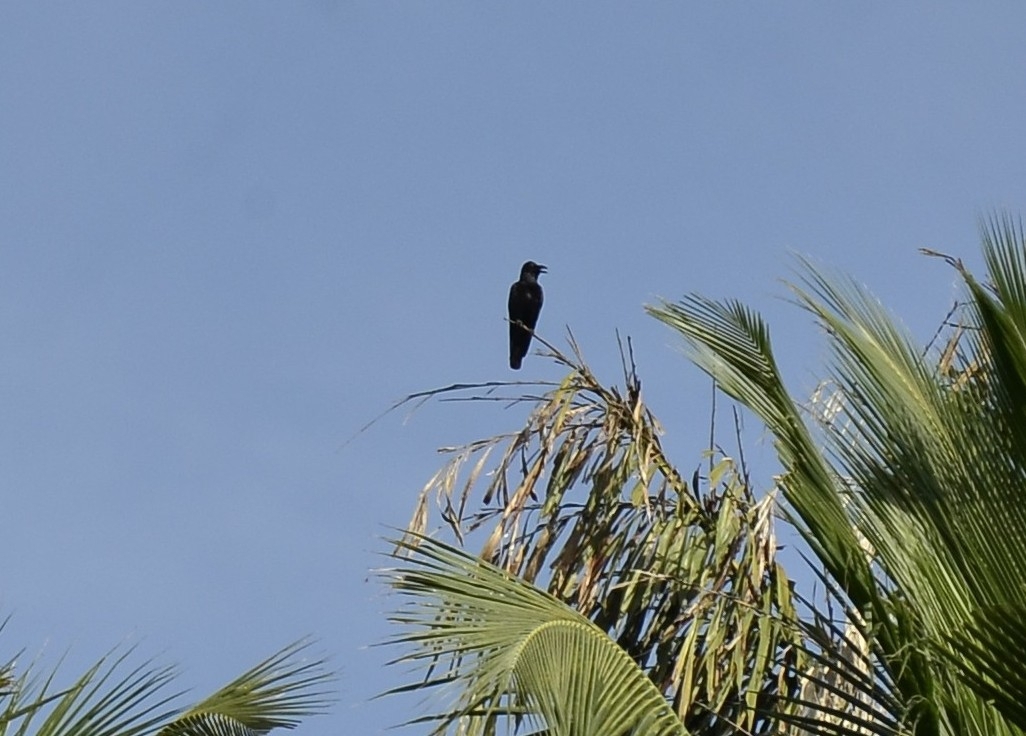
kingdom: Animalia
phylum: Chordata
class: Aves
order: Passeriformes
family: Corvidae
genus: Corvus
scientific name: Corvus macrorhynchos
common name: Large-billed crow
